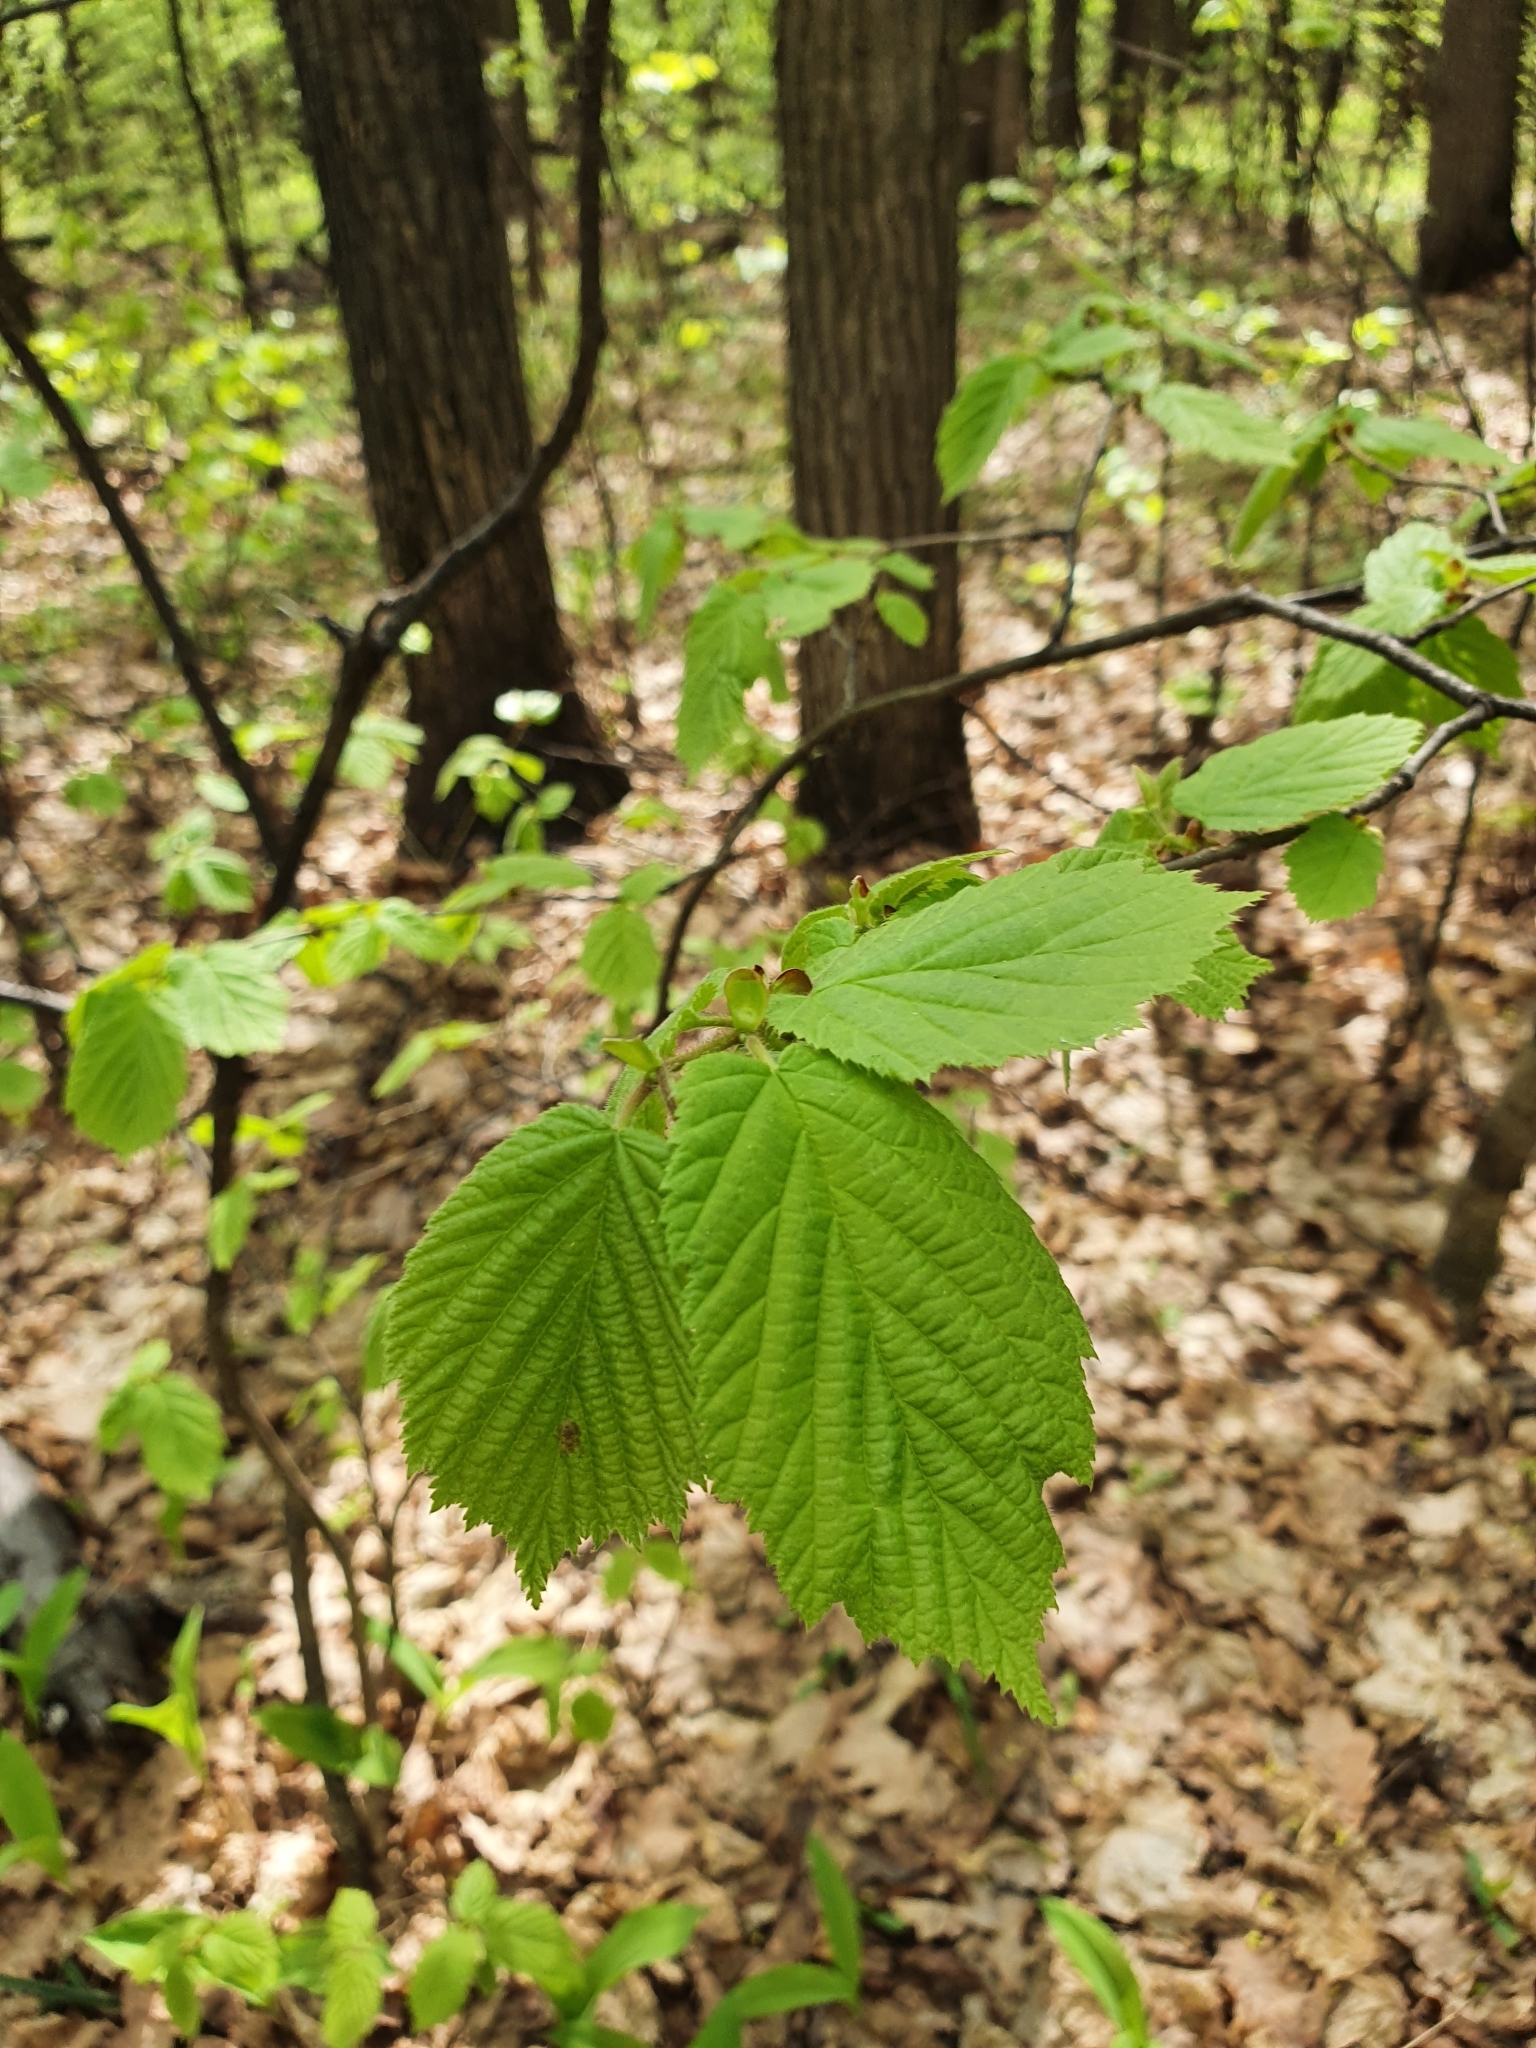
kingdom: Plantae
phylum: Tracheophyta
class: Magnoliopsida
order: Fagales
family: Betulaceae
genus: Corylus
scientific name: Corylus avellana
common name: European hazel
